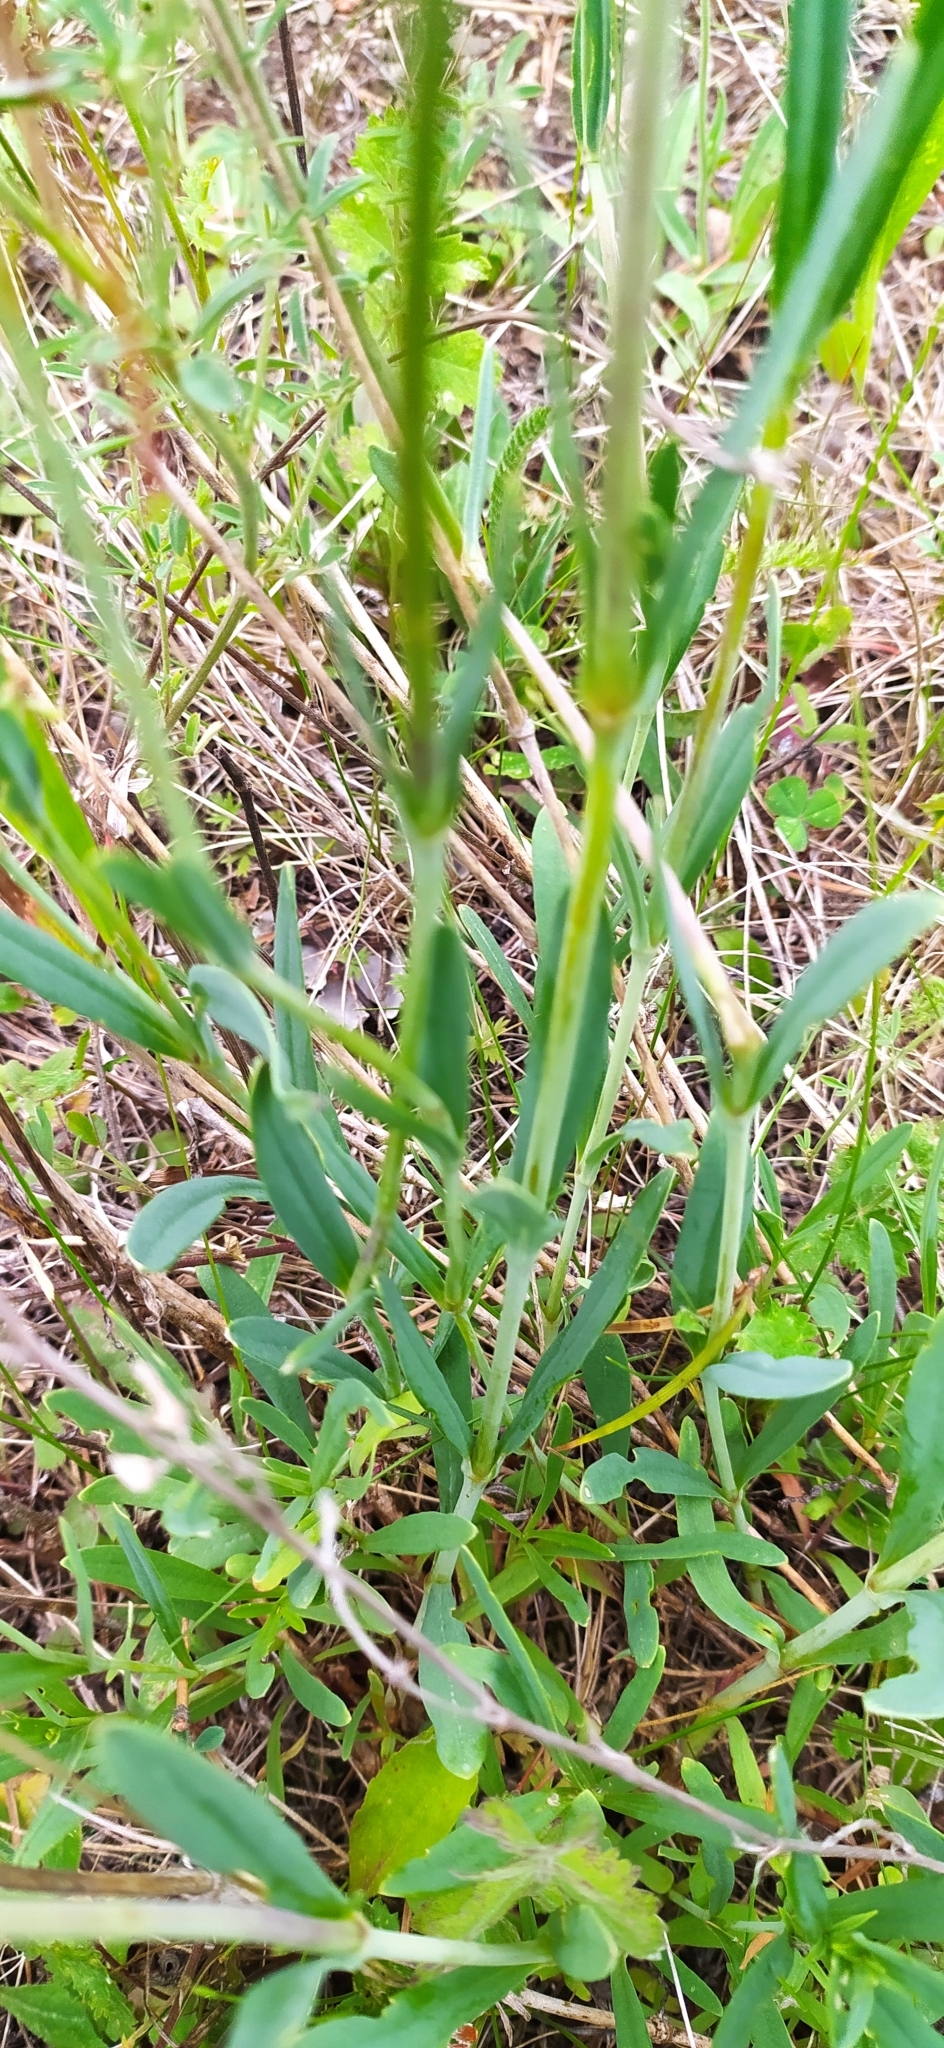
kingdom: Plantae
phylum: Tracheophyta
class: Magnoliopsida
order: Caryophyllales
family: Caryophyllaceae
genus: Gypsophila
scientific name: Gypsophila altissima
